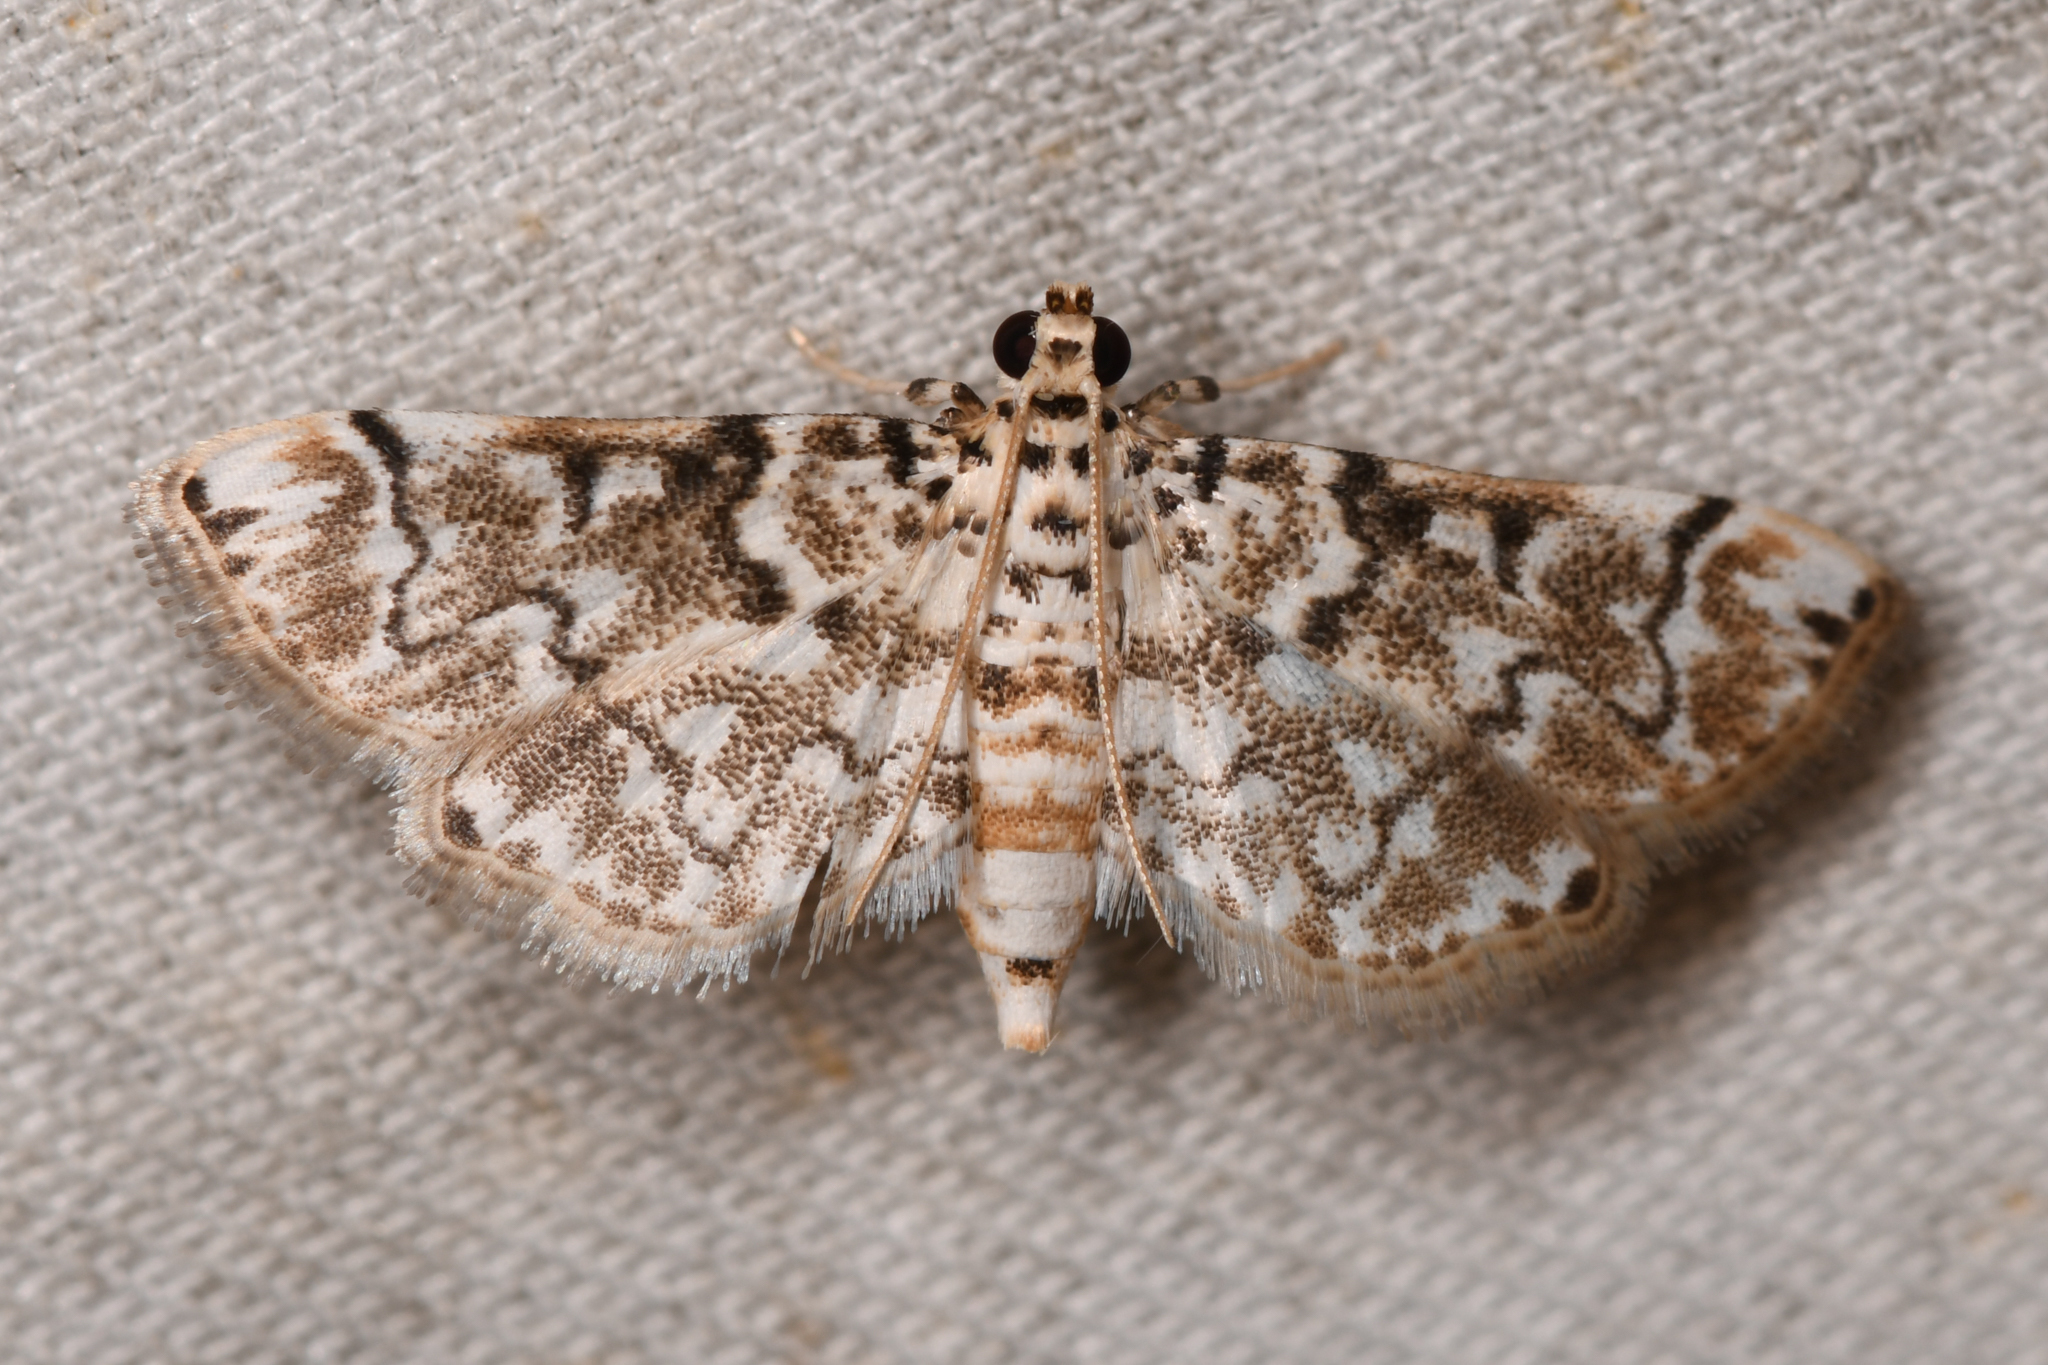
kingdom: Animalia
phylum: Arthropoda
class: Insecta
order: Lepidoptera
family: Crambidae
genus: Metoeca
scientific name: Metoeca foedalis
